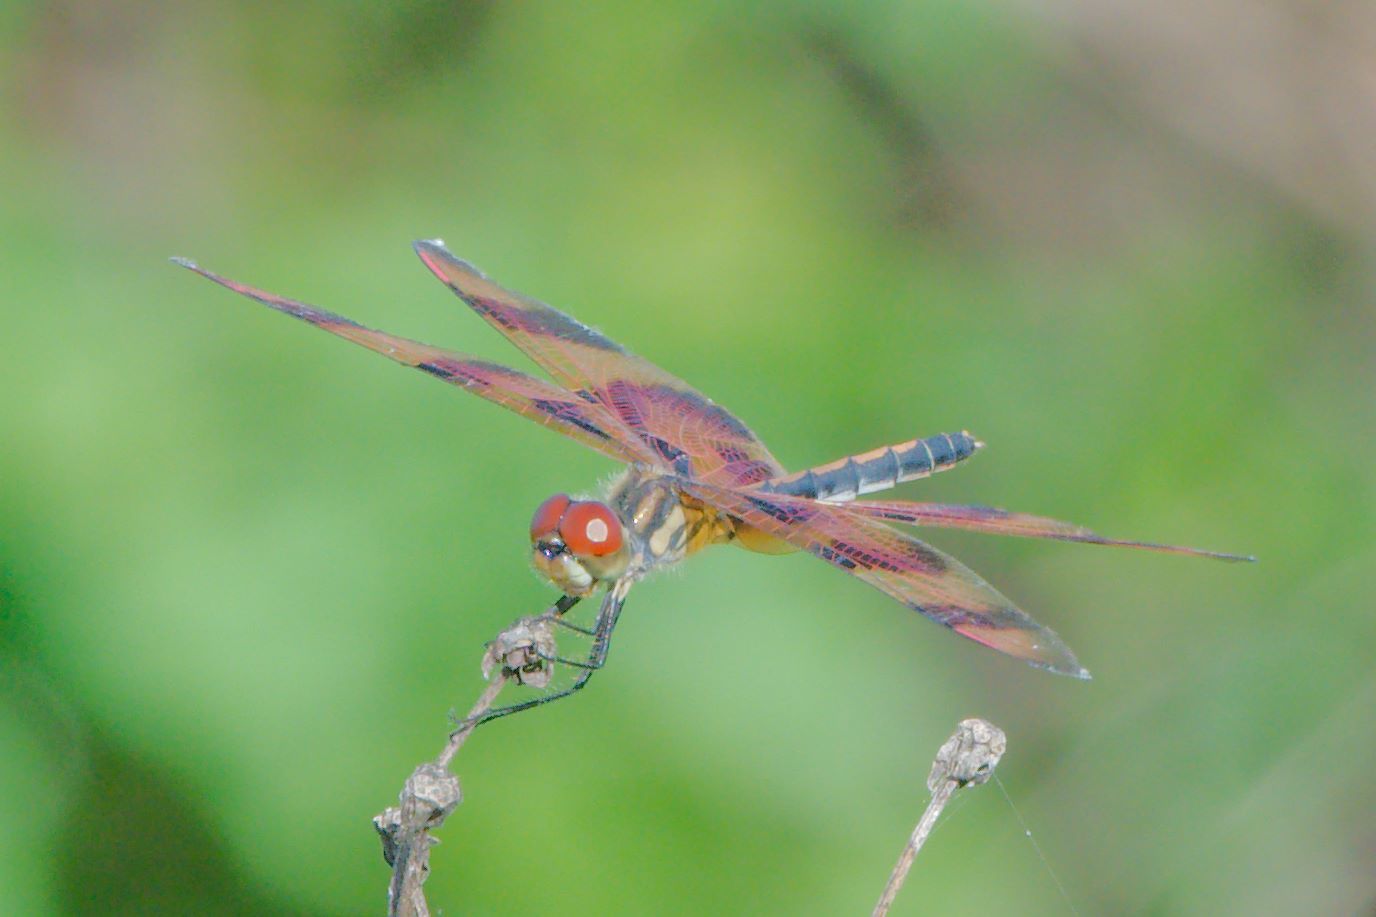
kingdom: Animalia
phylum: Arthropoda
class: Insecta
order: Odonata
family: Libellulidae
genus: Celithemis
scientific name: Celithemis eponina
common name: Halloween pennant
